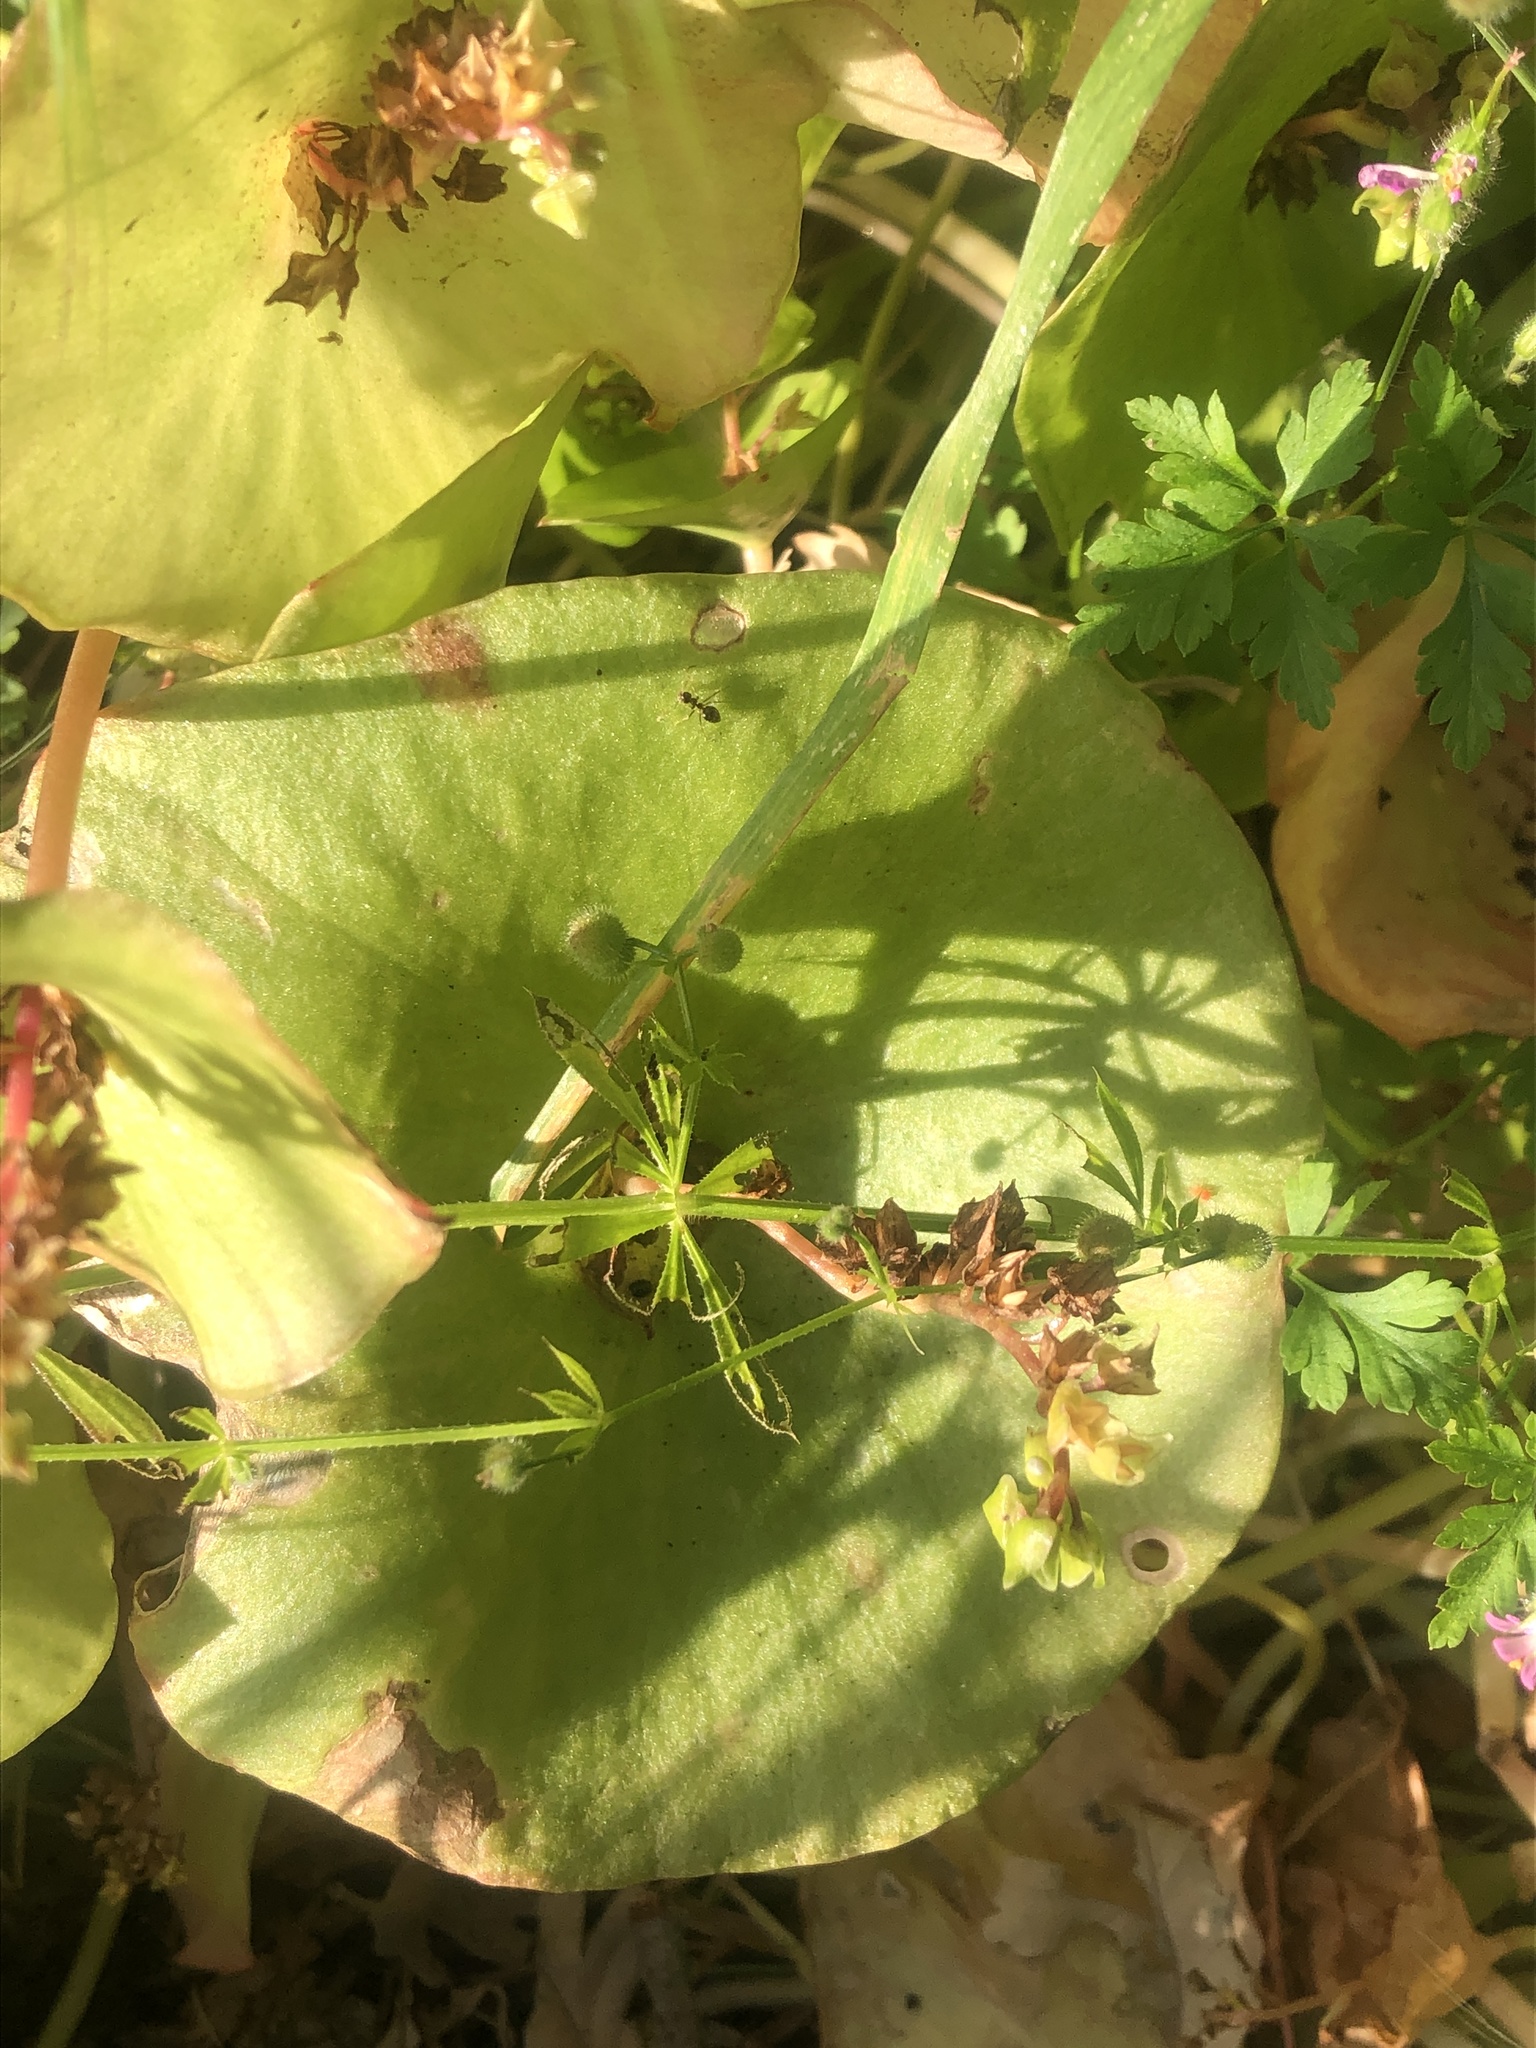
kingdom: Plantae
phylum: Tracheophyta
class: Magnoliopsida
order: Caryophyllales
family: Montiaceae
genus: Claytonia
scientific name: Claytonia perfoliata
